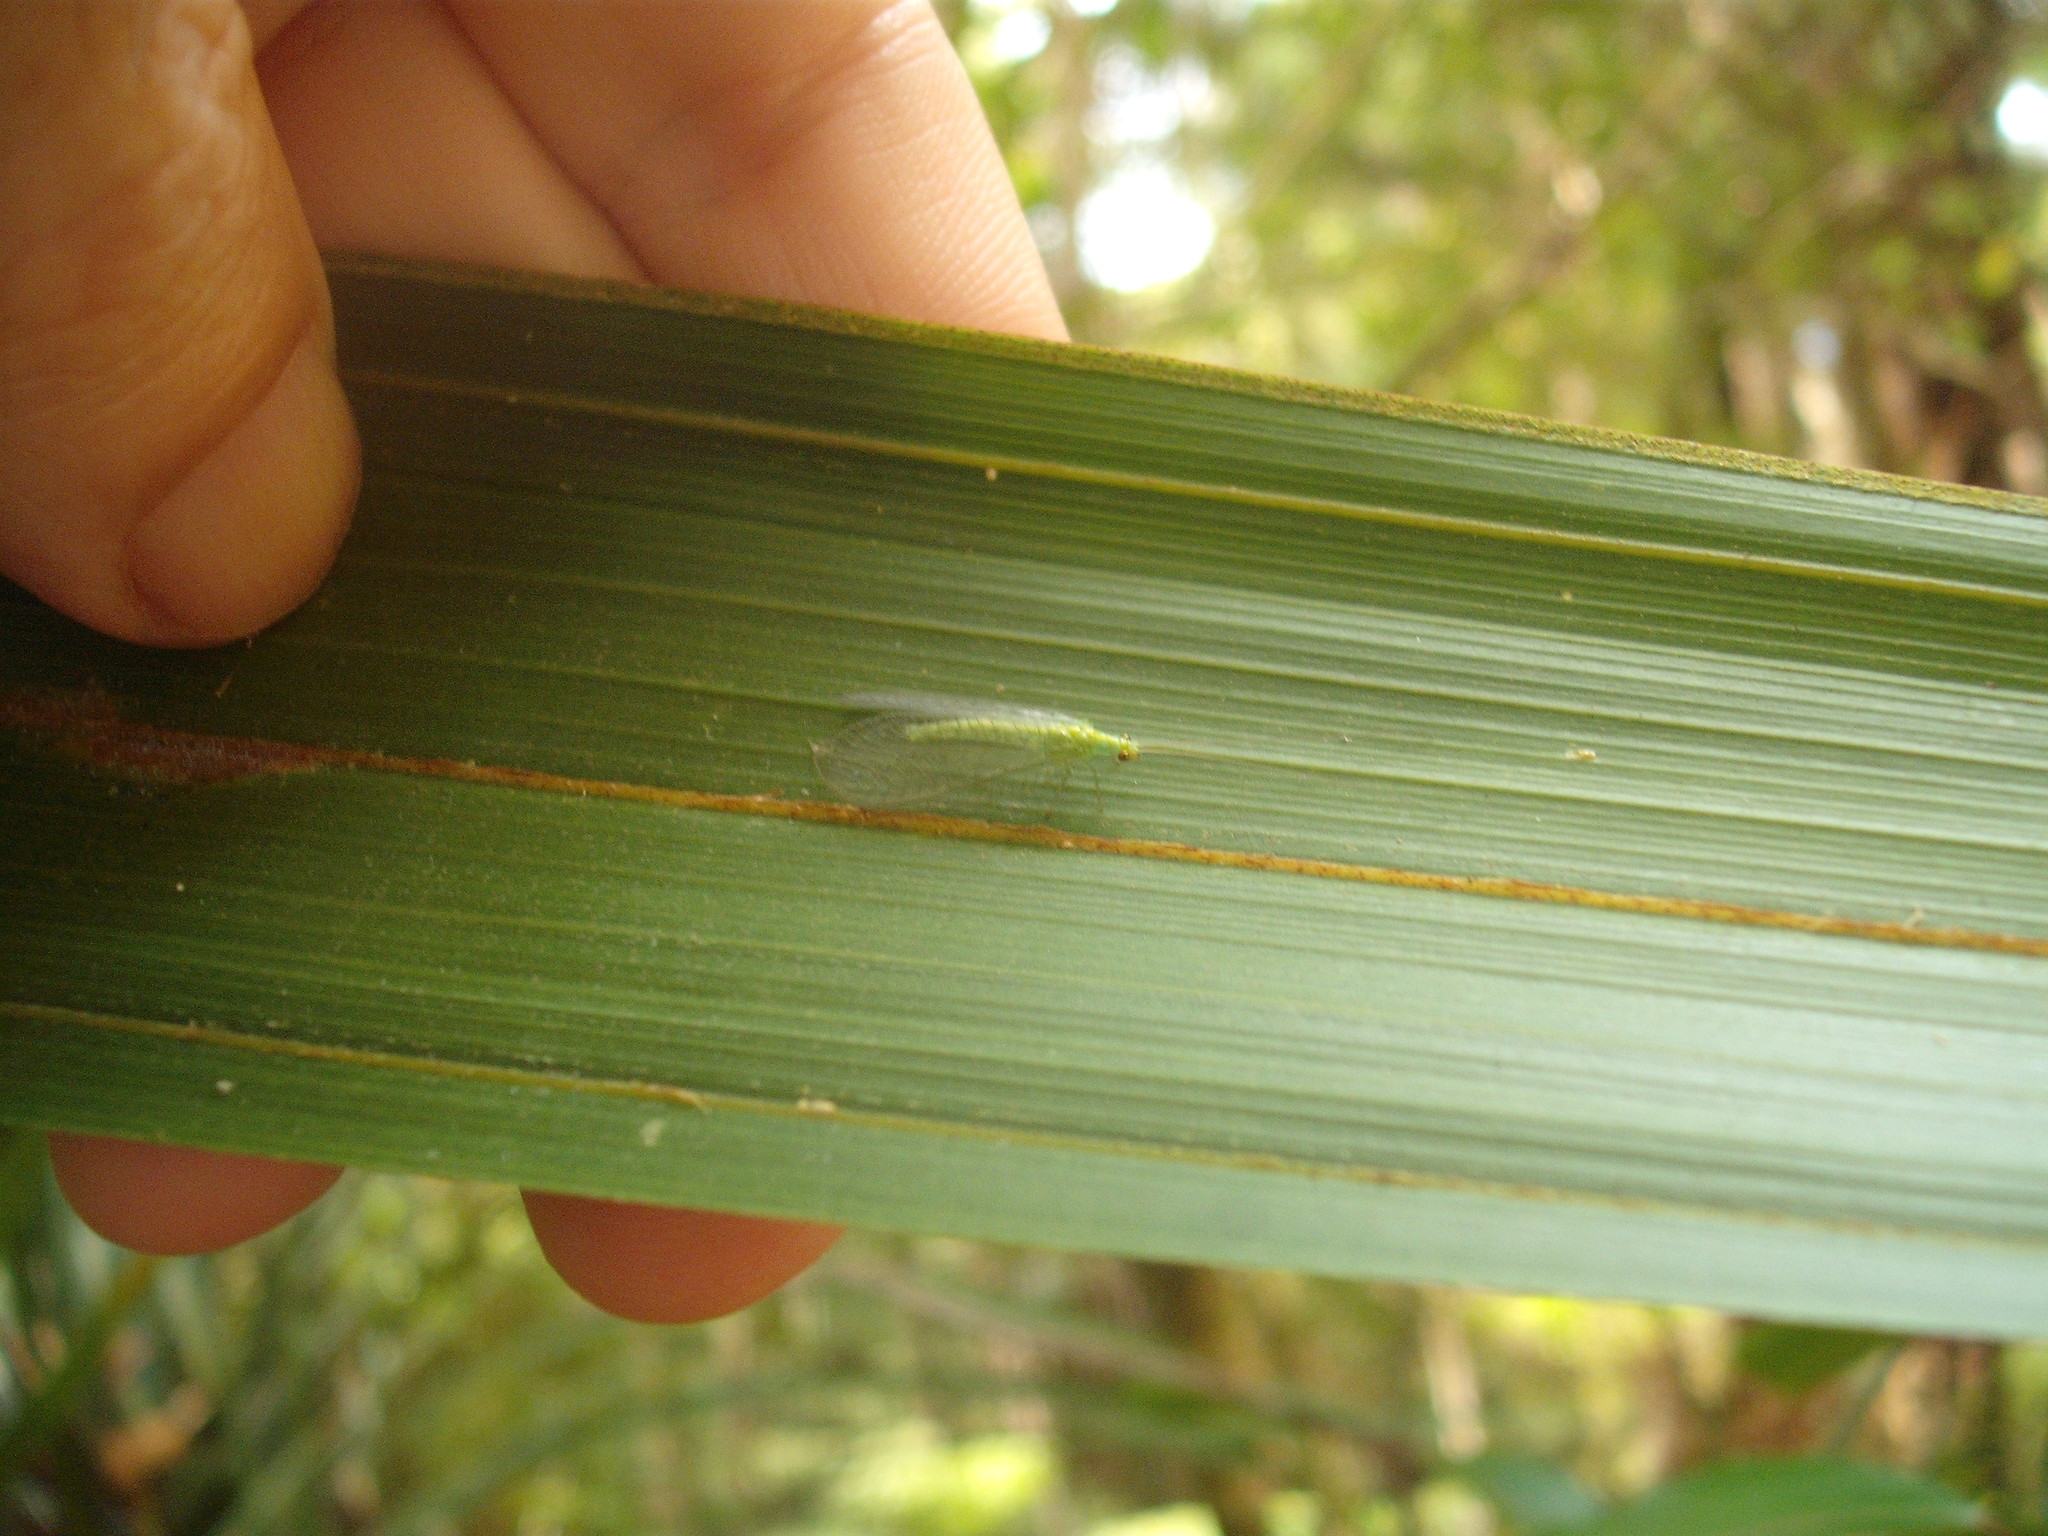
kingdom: Animalia
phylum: Arthropoda
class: Insecta
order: Neuroptera
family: Chrysopidae
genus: Mallada
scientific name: Mallada basalis
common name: Green lacewing
